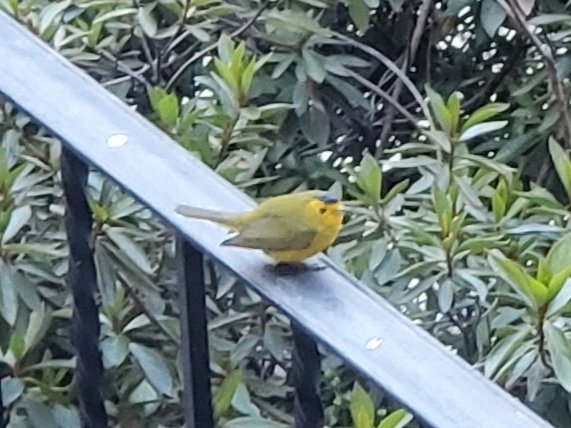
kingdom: Animalia
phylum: Chordata
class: Aves
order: Passeriformes
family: Parulidae
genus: Cardellina
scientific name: Cardellina pusilla
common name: Wilson's warbler
